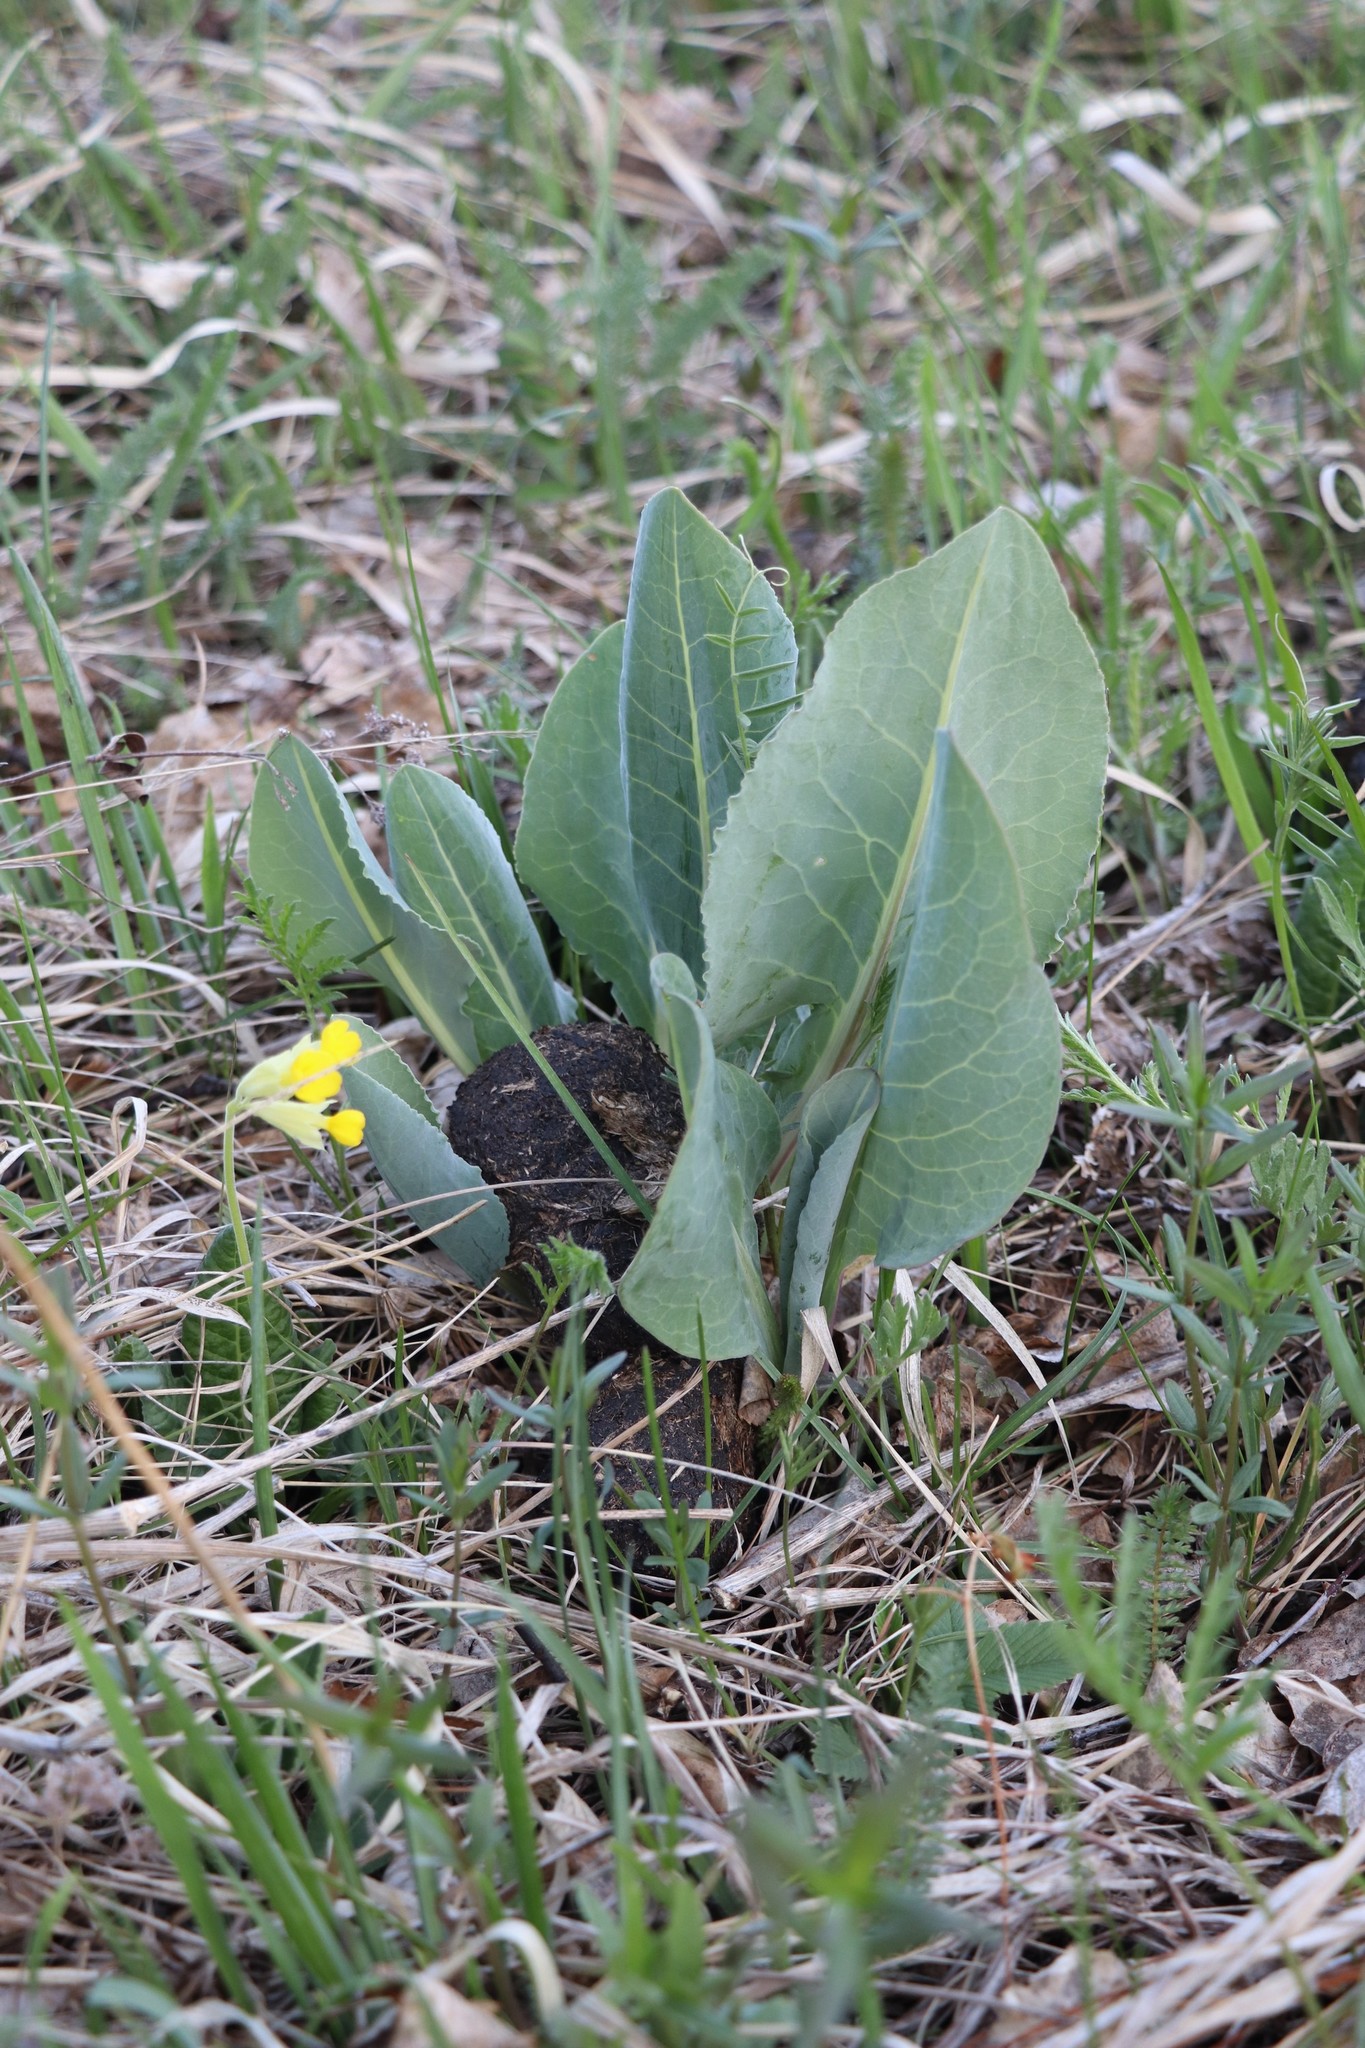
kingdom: Plantae
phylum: Tracheophyta
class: Magnoliopsida
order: Asterales
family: Asteraceae
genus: Ligularia
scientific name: Ligularia glauca
